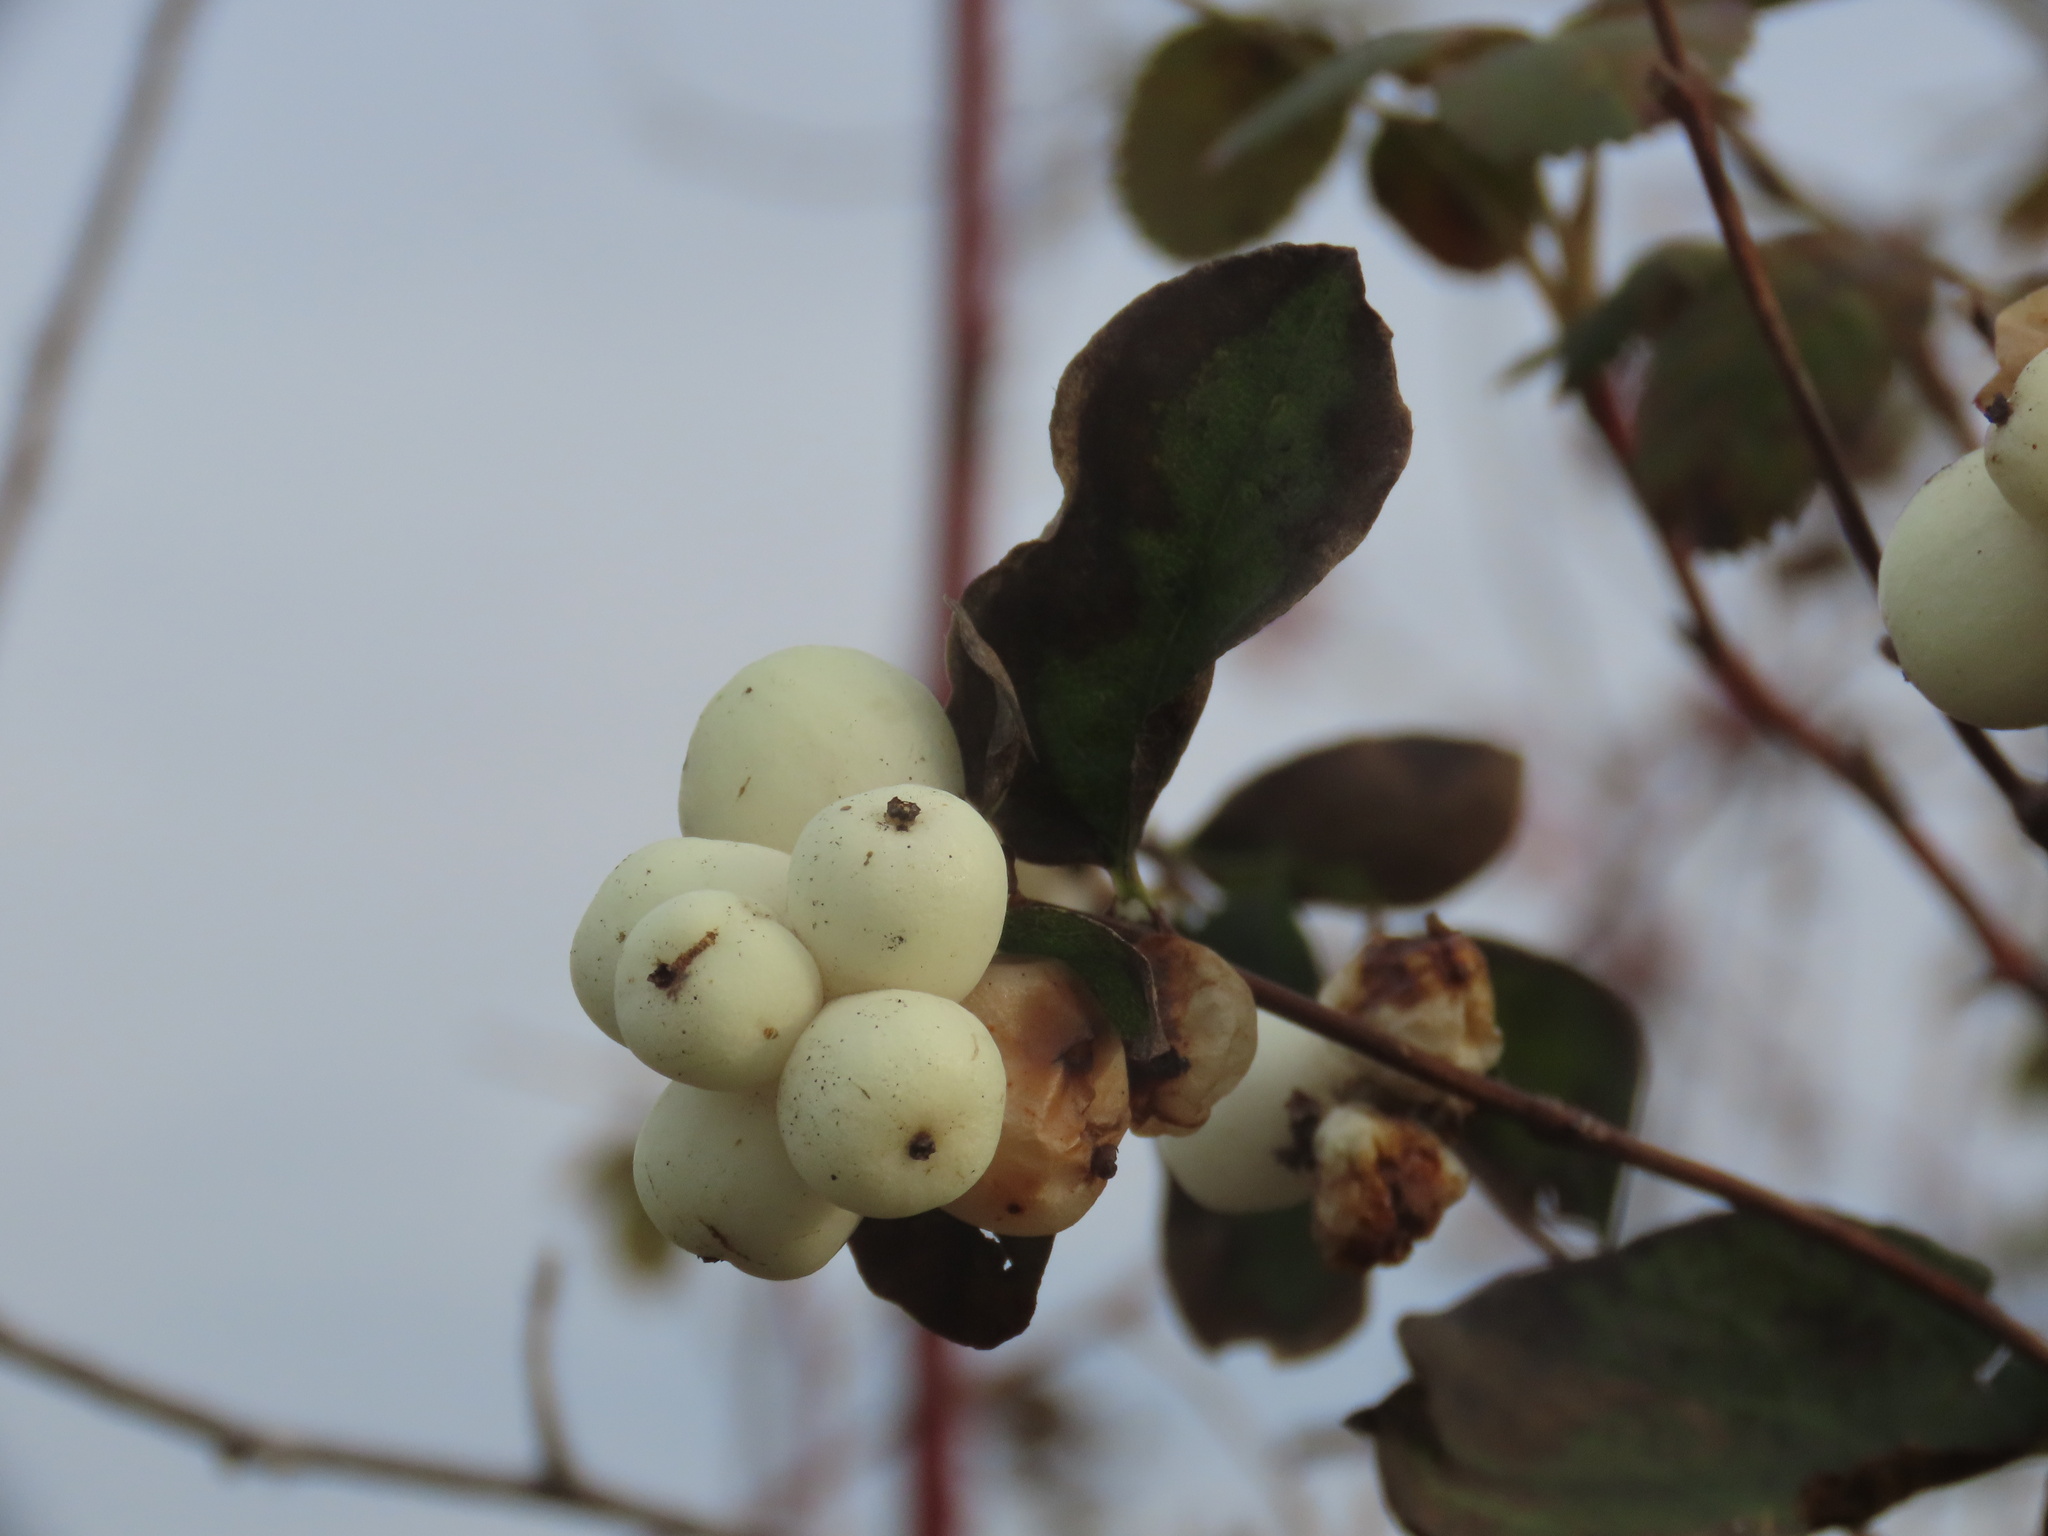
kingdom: Plantae
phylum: Tracheophyta
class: Magnoliopsida
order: Dipsacales
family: Caprifoliaceae
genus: Symphoricarpos
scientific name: Symphoricarpos albus
